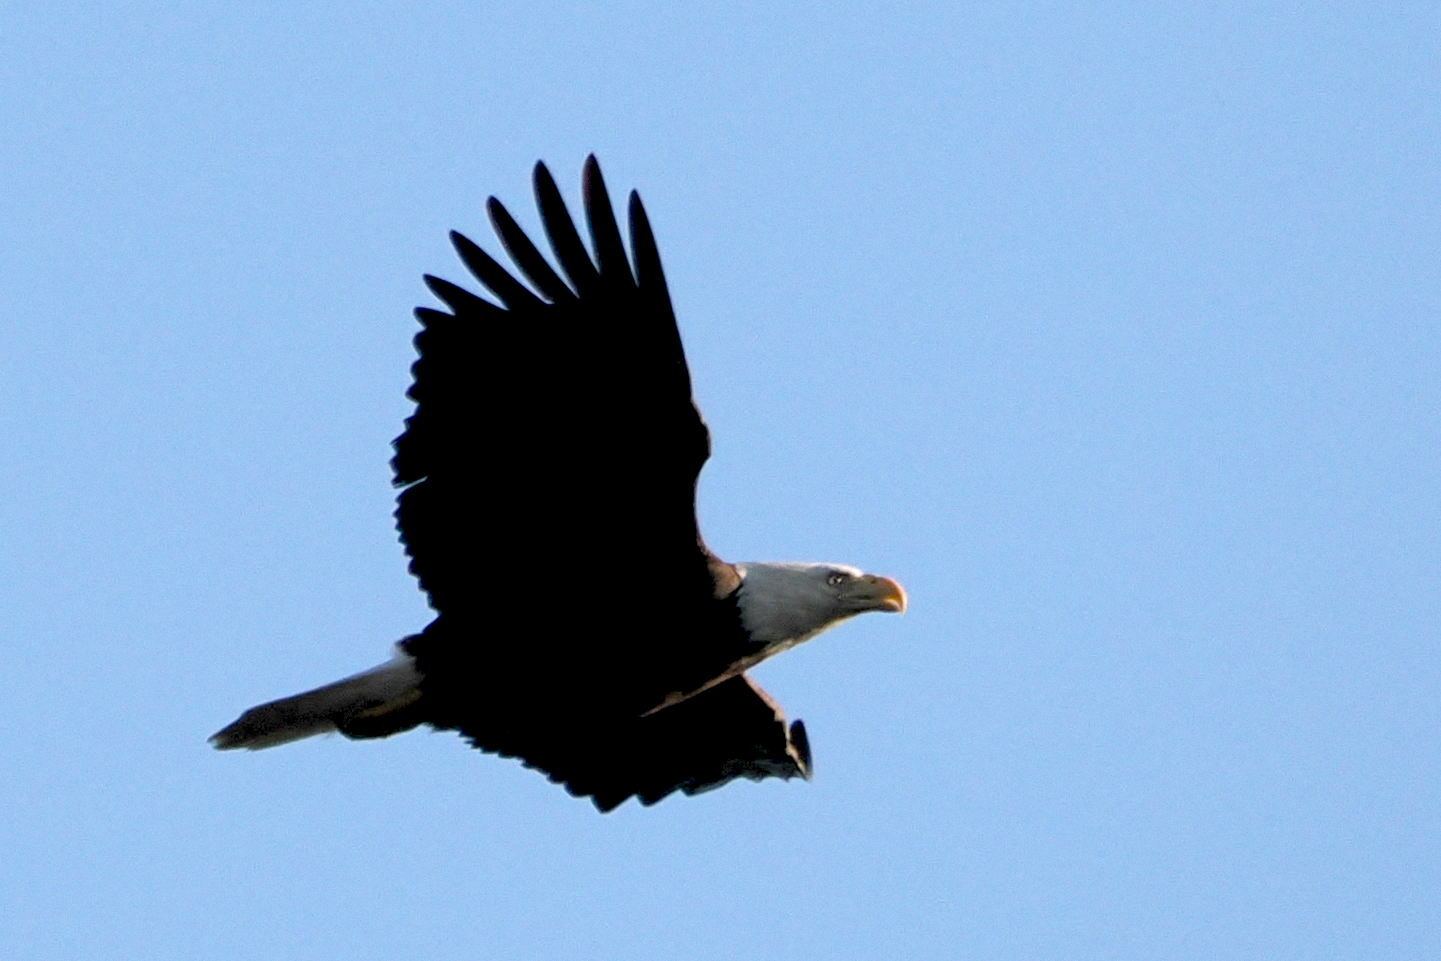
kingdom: Animalia
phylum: Chordata
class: Aves
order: Accipitriformes
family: Accipitridae
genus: Haliaeetus
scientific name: Haliaeetus leucocephalus
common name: Bald eagle
